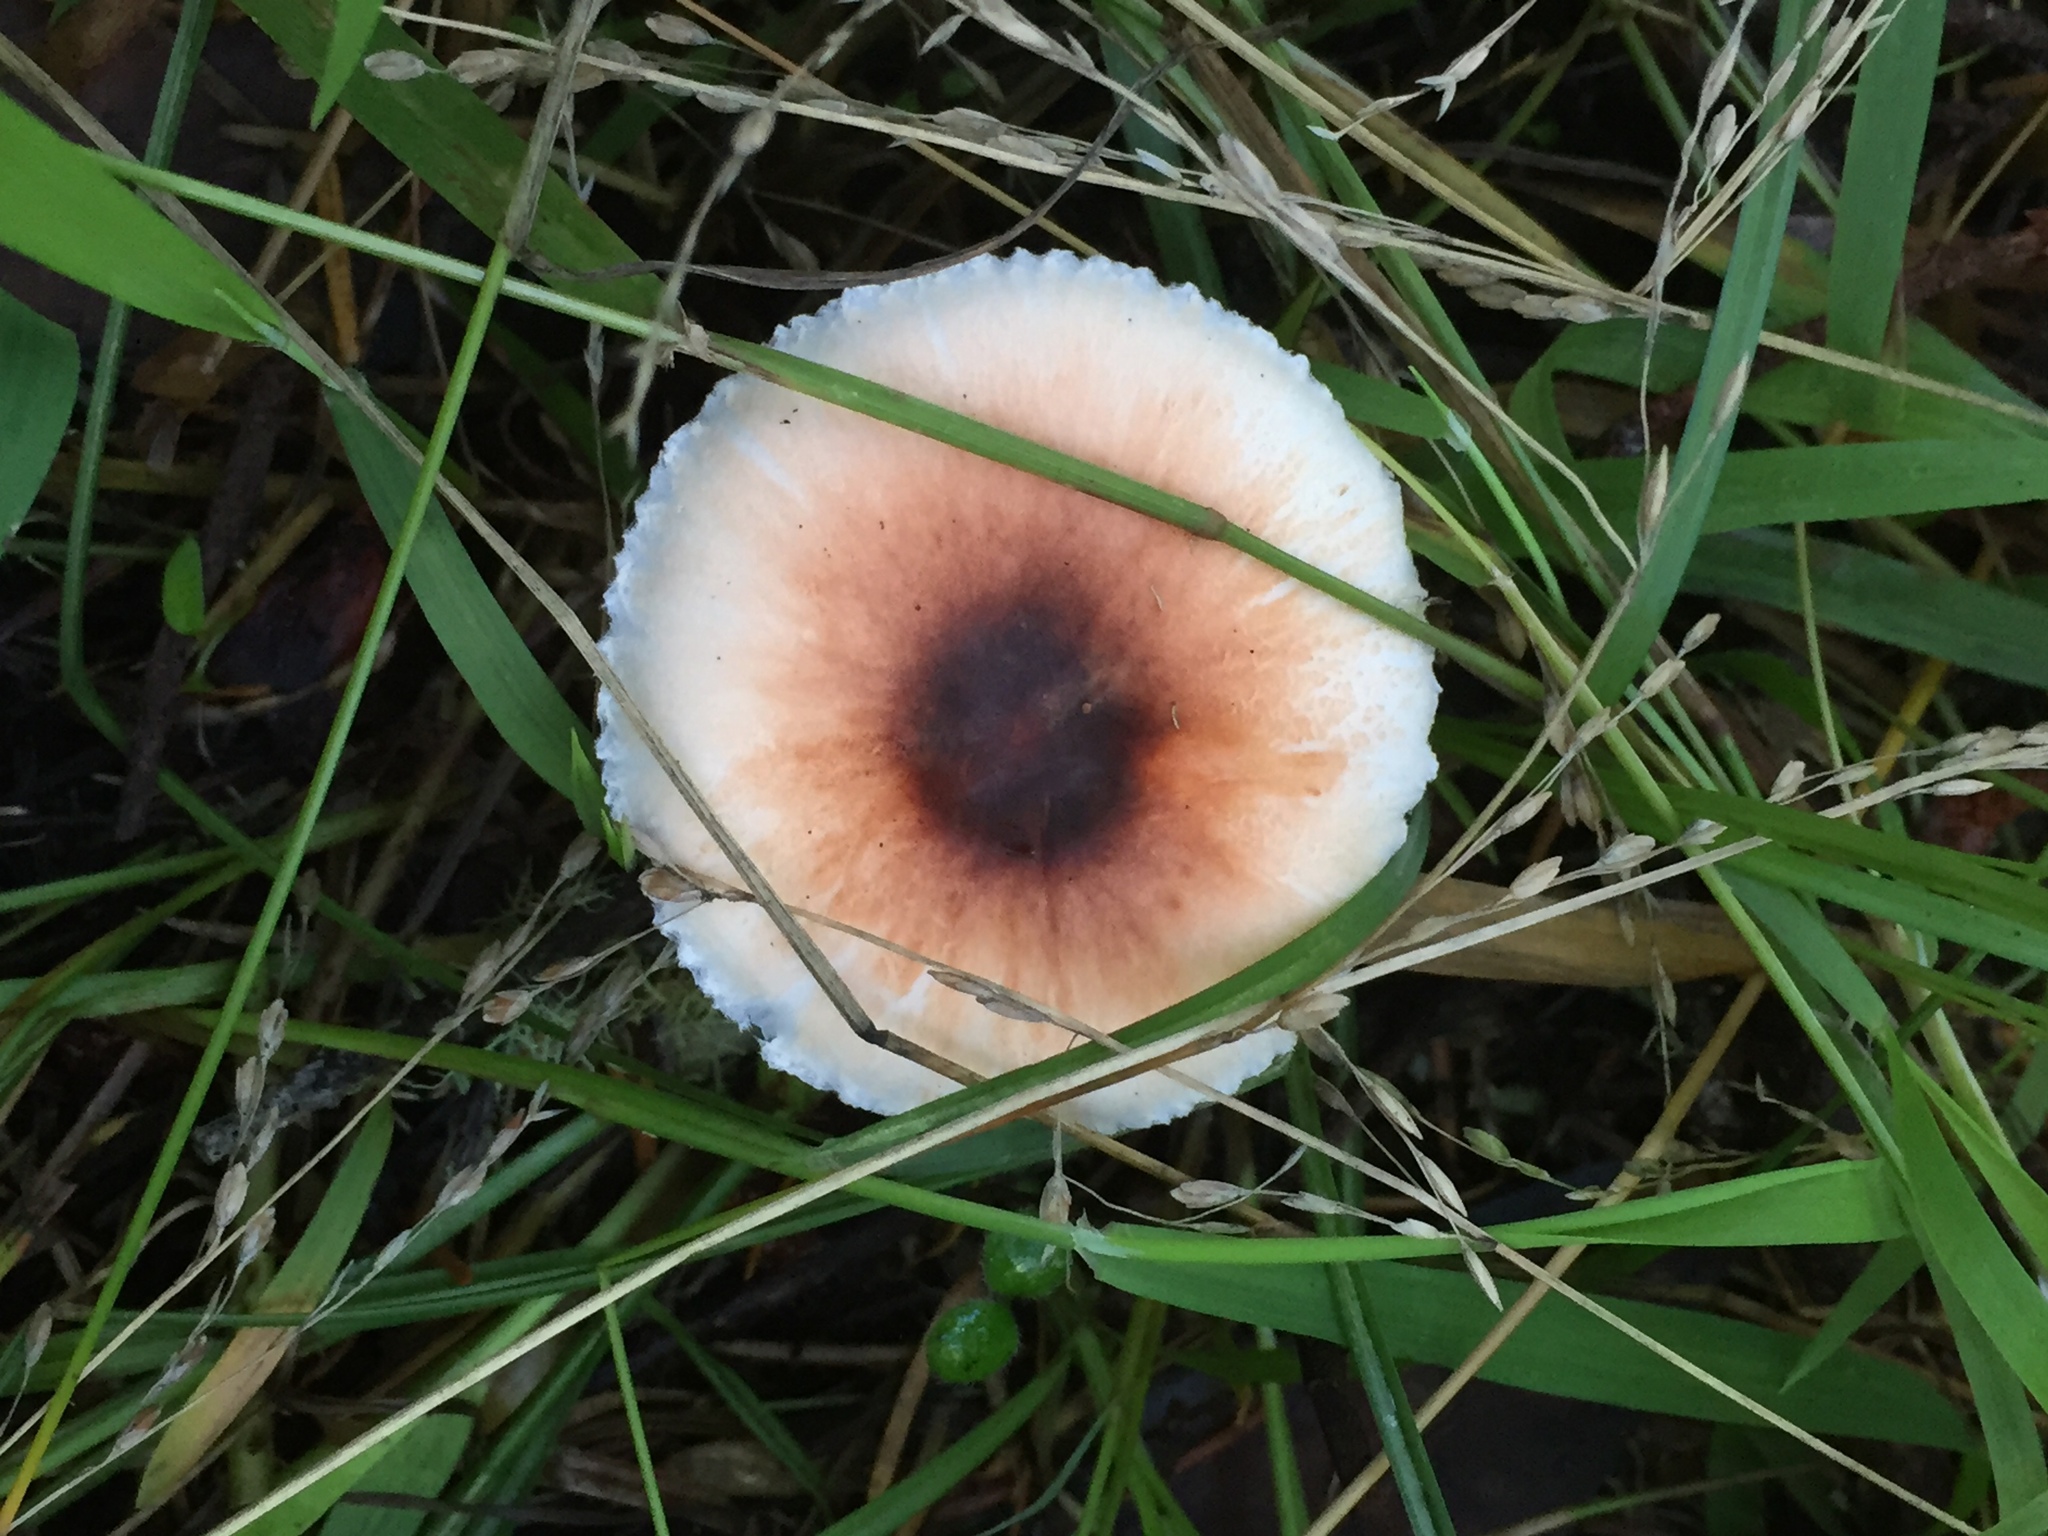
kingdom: Fungi
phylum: Basidiomycota
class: Agaricomycetes
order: Agaricales
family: Agaricaceae
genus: Lepiota
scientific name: Lepiota rubrotinctoides
